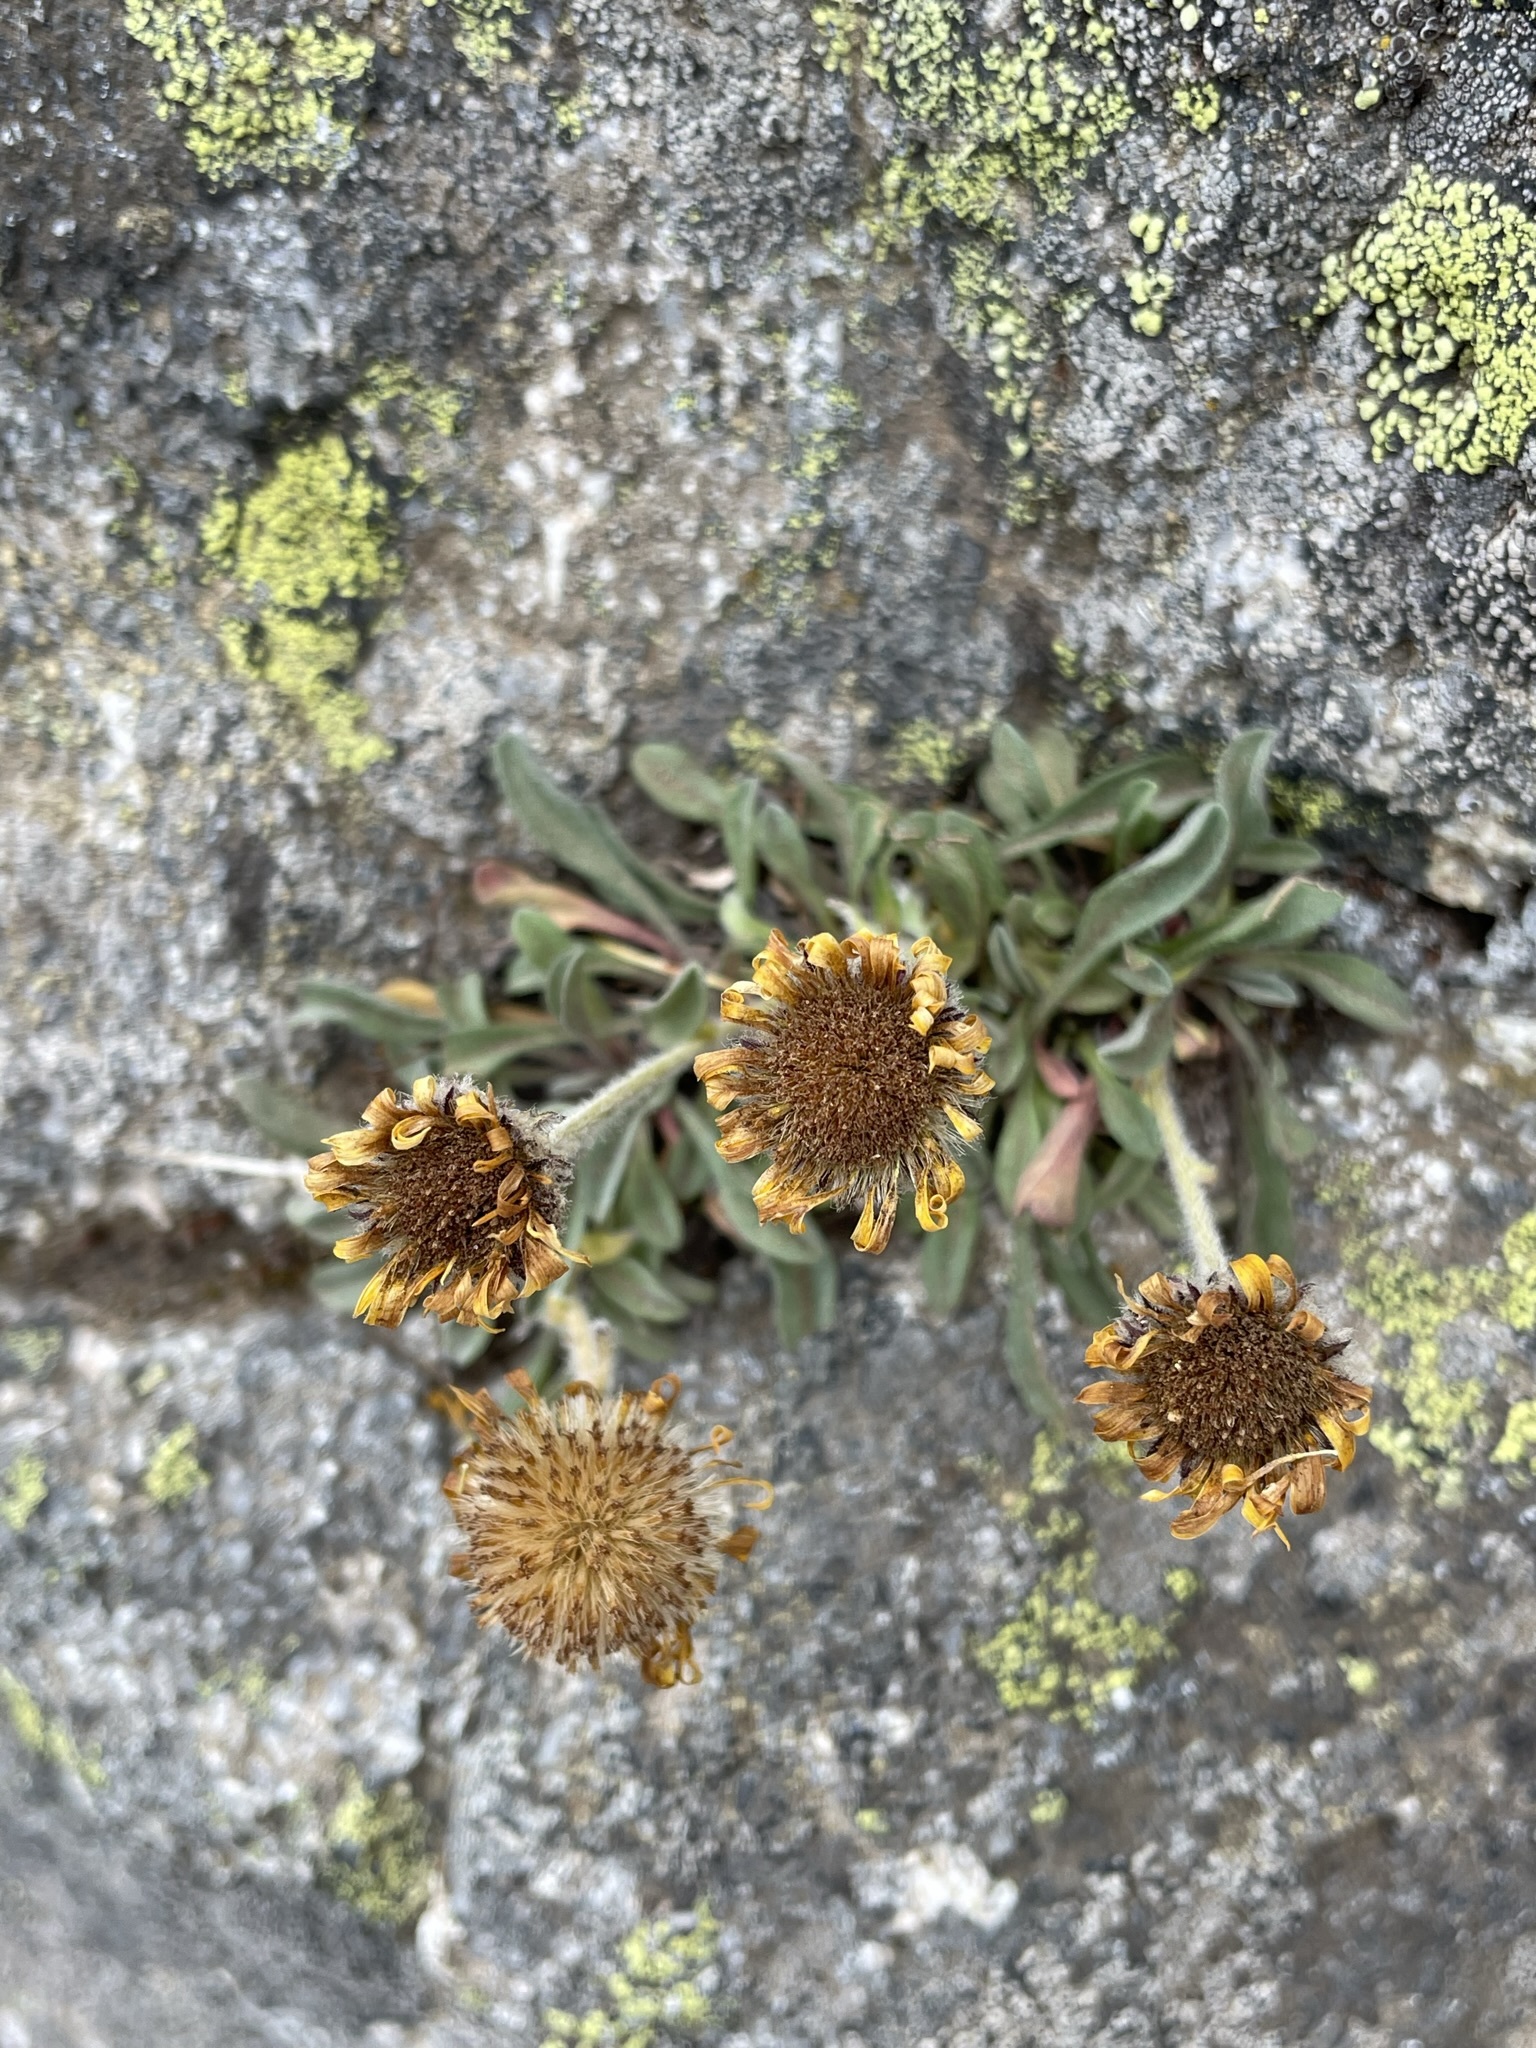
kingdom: Plantae
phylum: Tracheophyta
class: Magnoliopsida
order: Asterales
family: Asteraceae
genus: Erigeron
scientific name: Erigeron aureus
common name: Alpine yellow fleabane
